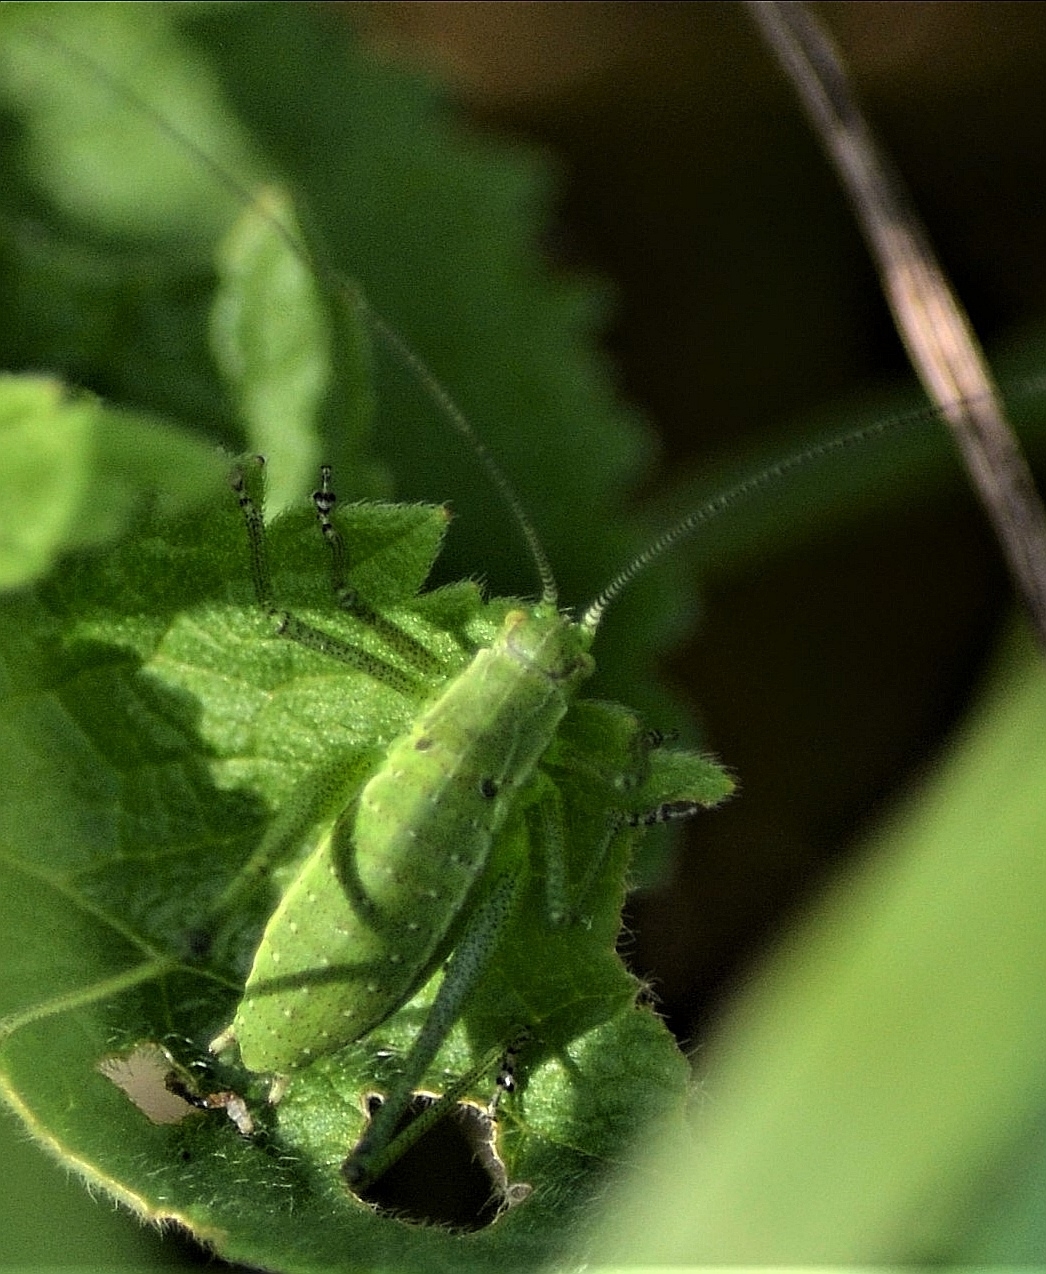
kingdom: Animalia
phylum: Arthropoda
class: Insecta
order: Orthoptera
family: Tettigoniidae
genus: Leptophyes
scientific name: Leptophyes boscii
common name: Balkan speckled bush-cricket
